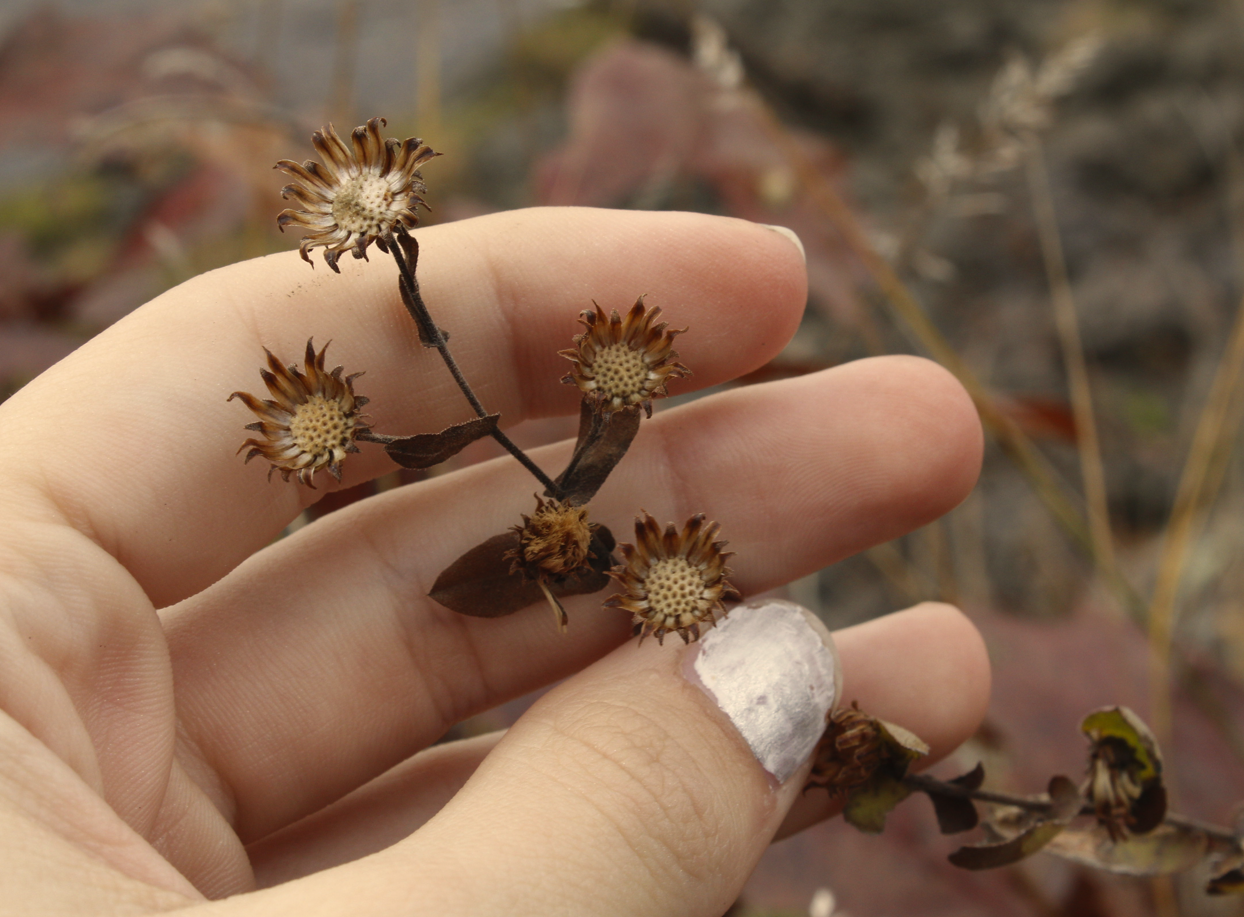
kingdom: Plantae
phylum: Tracheophyta
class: Magnoliopsida
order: Asterales
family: Asteraceae
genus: Symphyotrichum
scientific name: Symphyotrichum patens
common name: Late purple aster
